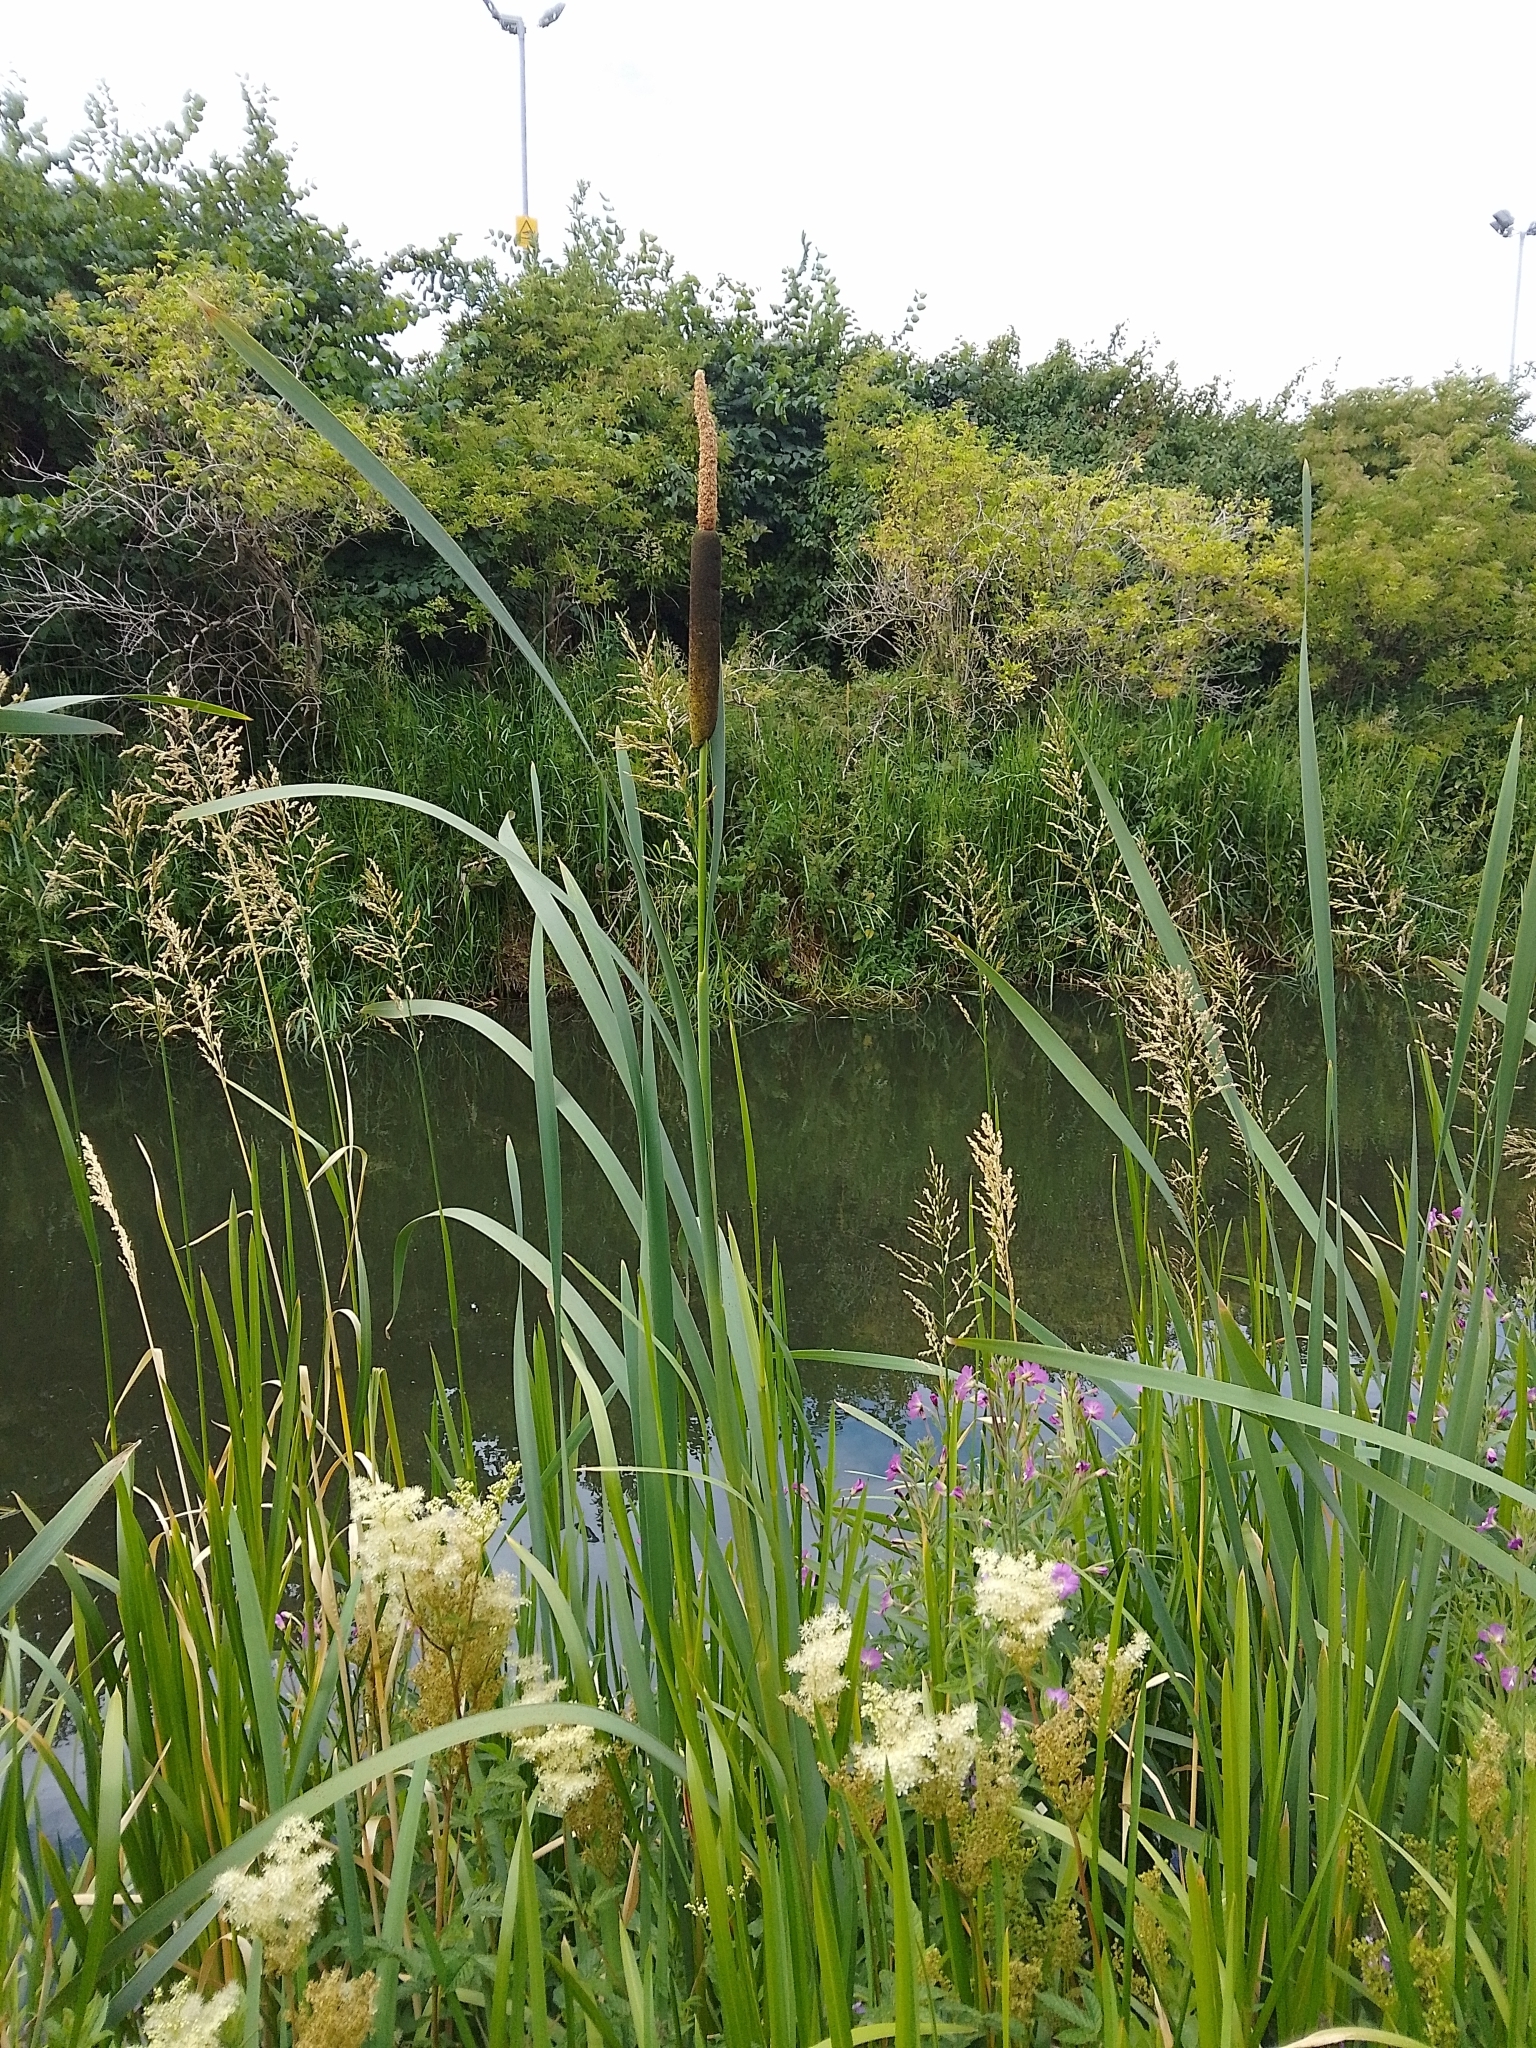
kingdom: Plantae
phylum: Tracheophyta
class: Liliopsida
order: Poales
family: Typhaceae
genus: Typha
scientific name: Typha latifolia
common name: Broadleaf cattail
